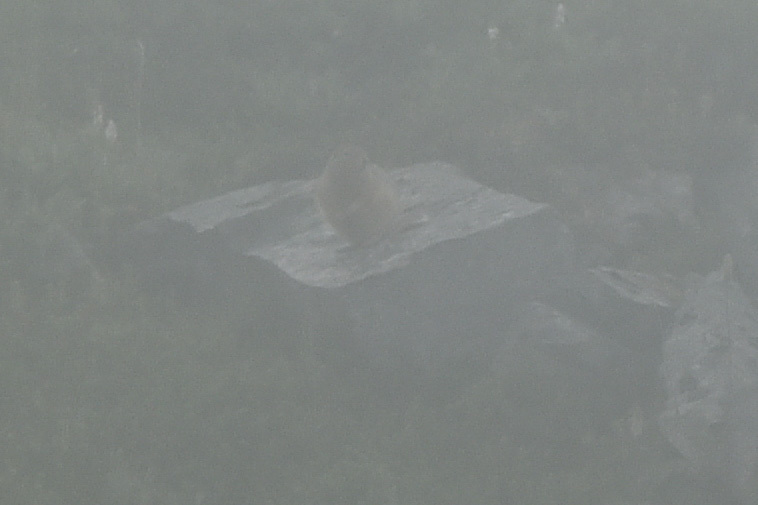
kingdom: Animalia
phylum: Chordata
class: Mammalia
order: Rodentia
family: Sciuridae
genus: Urocitellus
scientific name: Urocitellus parryii
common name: Arctic ground squirrel
